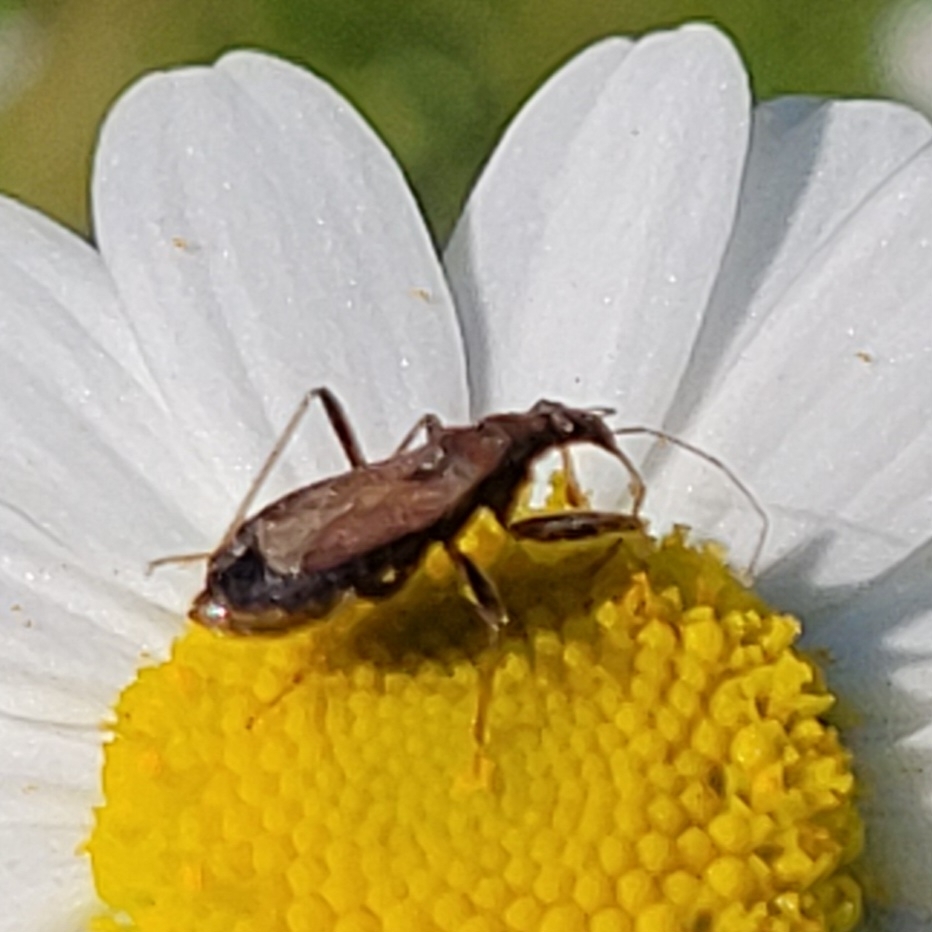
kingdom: Animalia
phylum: Arthropoda
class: Insecta
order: Hemiptera
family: Nabidae
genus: Himacerus
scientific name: Himacerus mirmicoides
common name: Ant damsel bug
